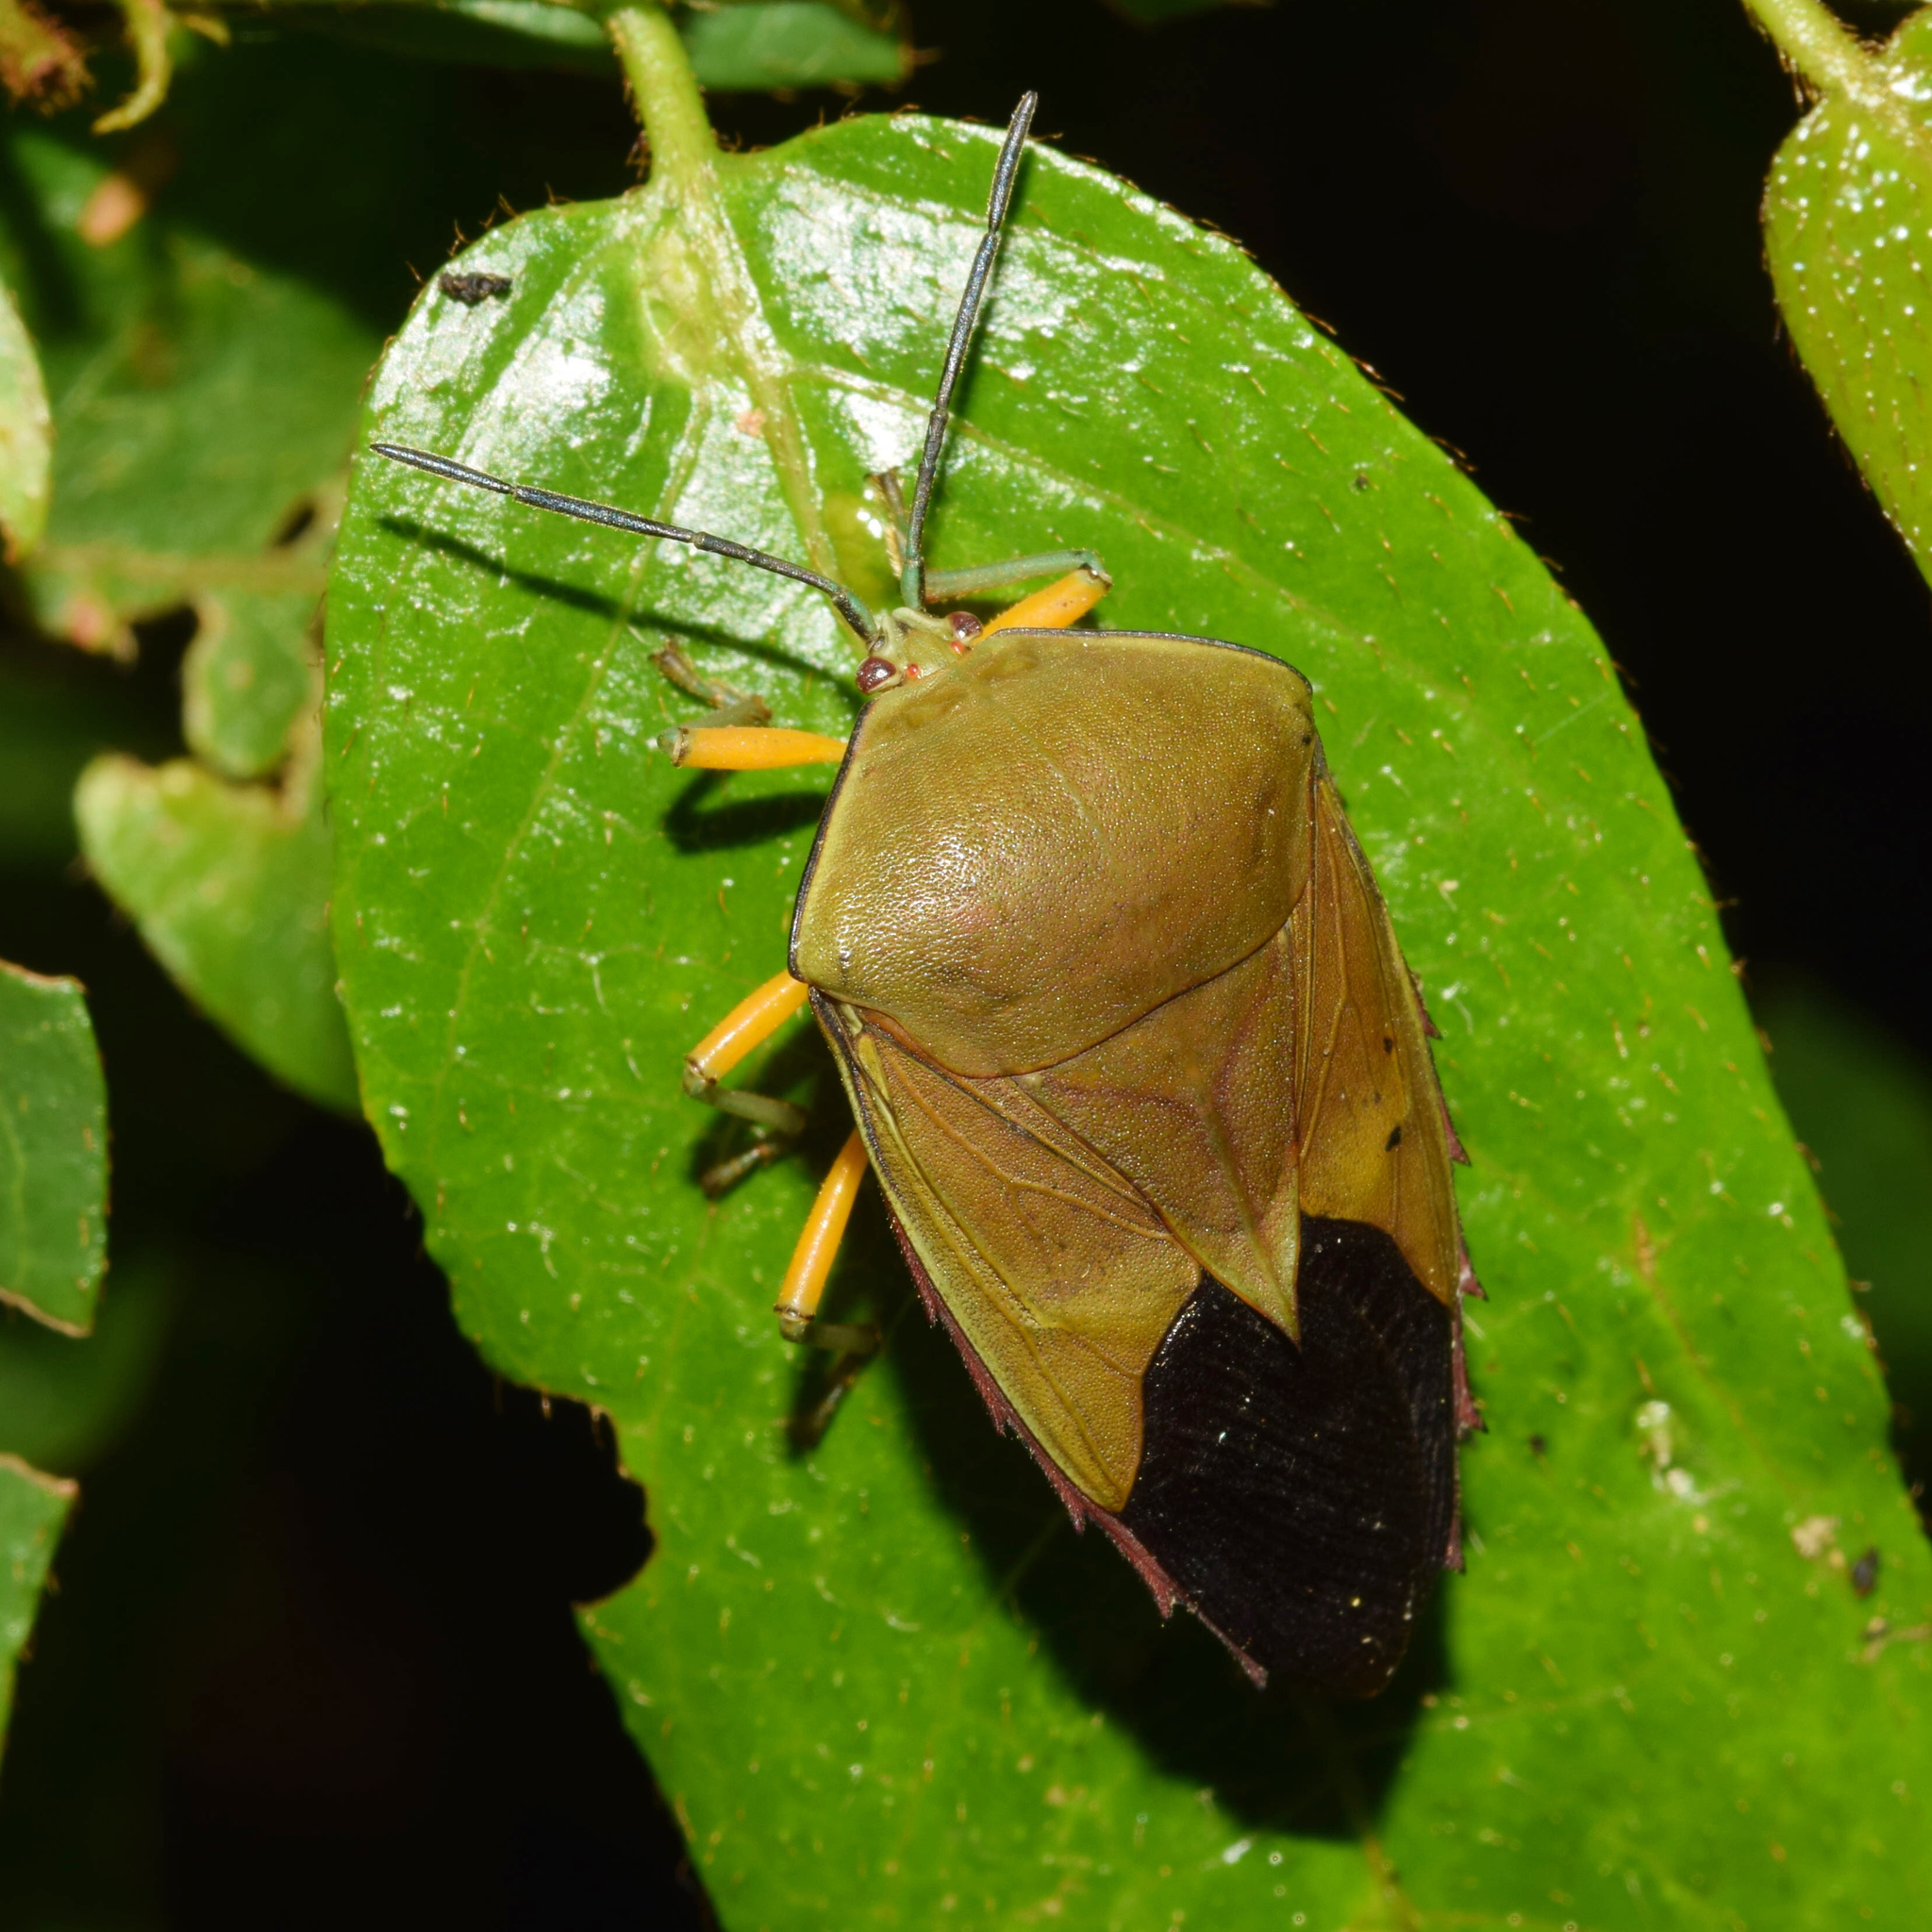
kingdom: Animalia
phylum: Arthropoda
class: Insecta
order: Hemiptera
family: Tessaratomidae
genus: Piezosternum
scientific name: Piezosternum calidum
